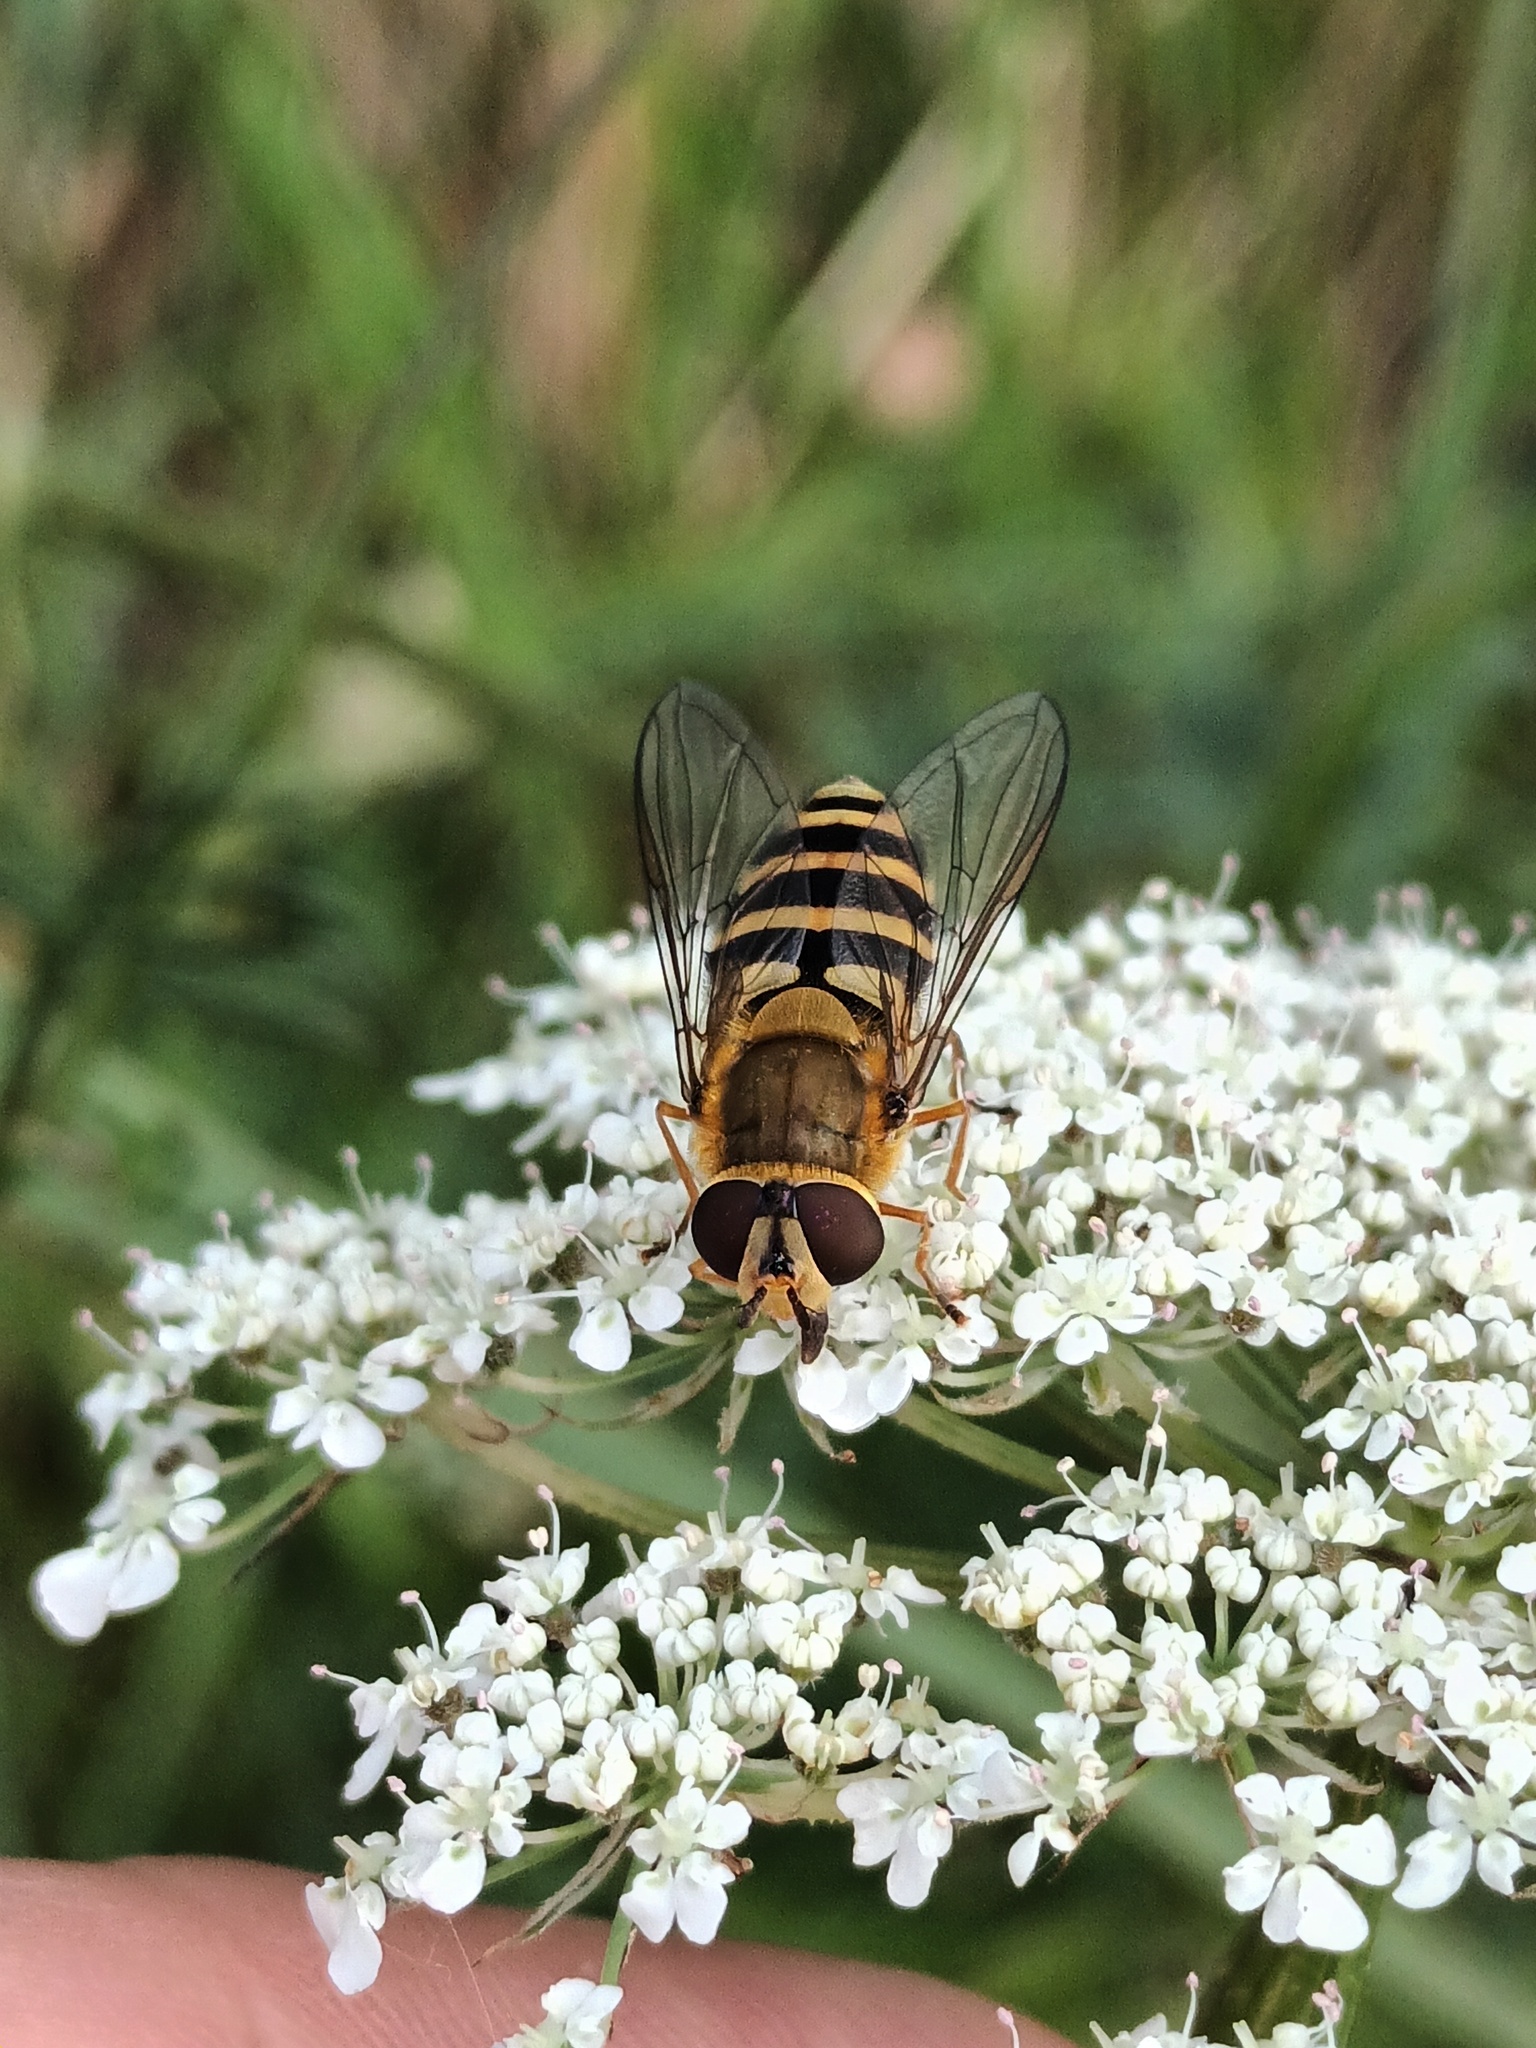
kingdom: Animalia
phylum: Arthropoda
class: Insecta
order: Diptera
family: Syrphidae
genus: Syrphus
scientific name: Syrphus ribesii
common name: Common flower fly
